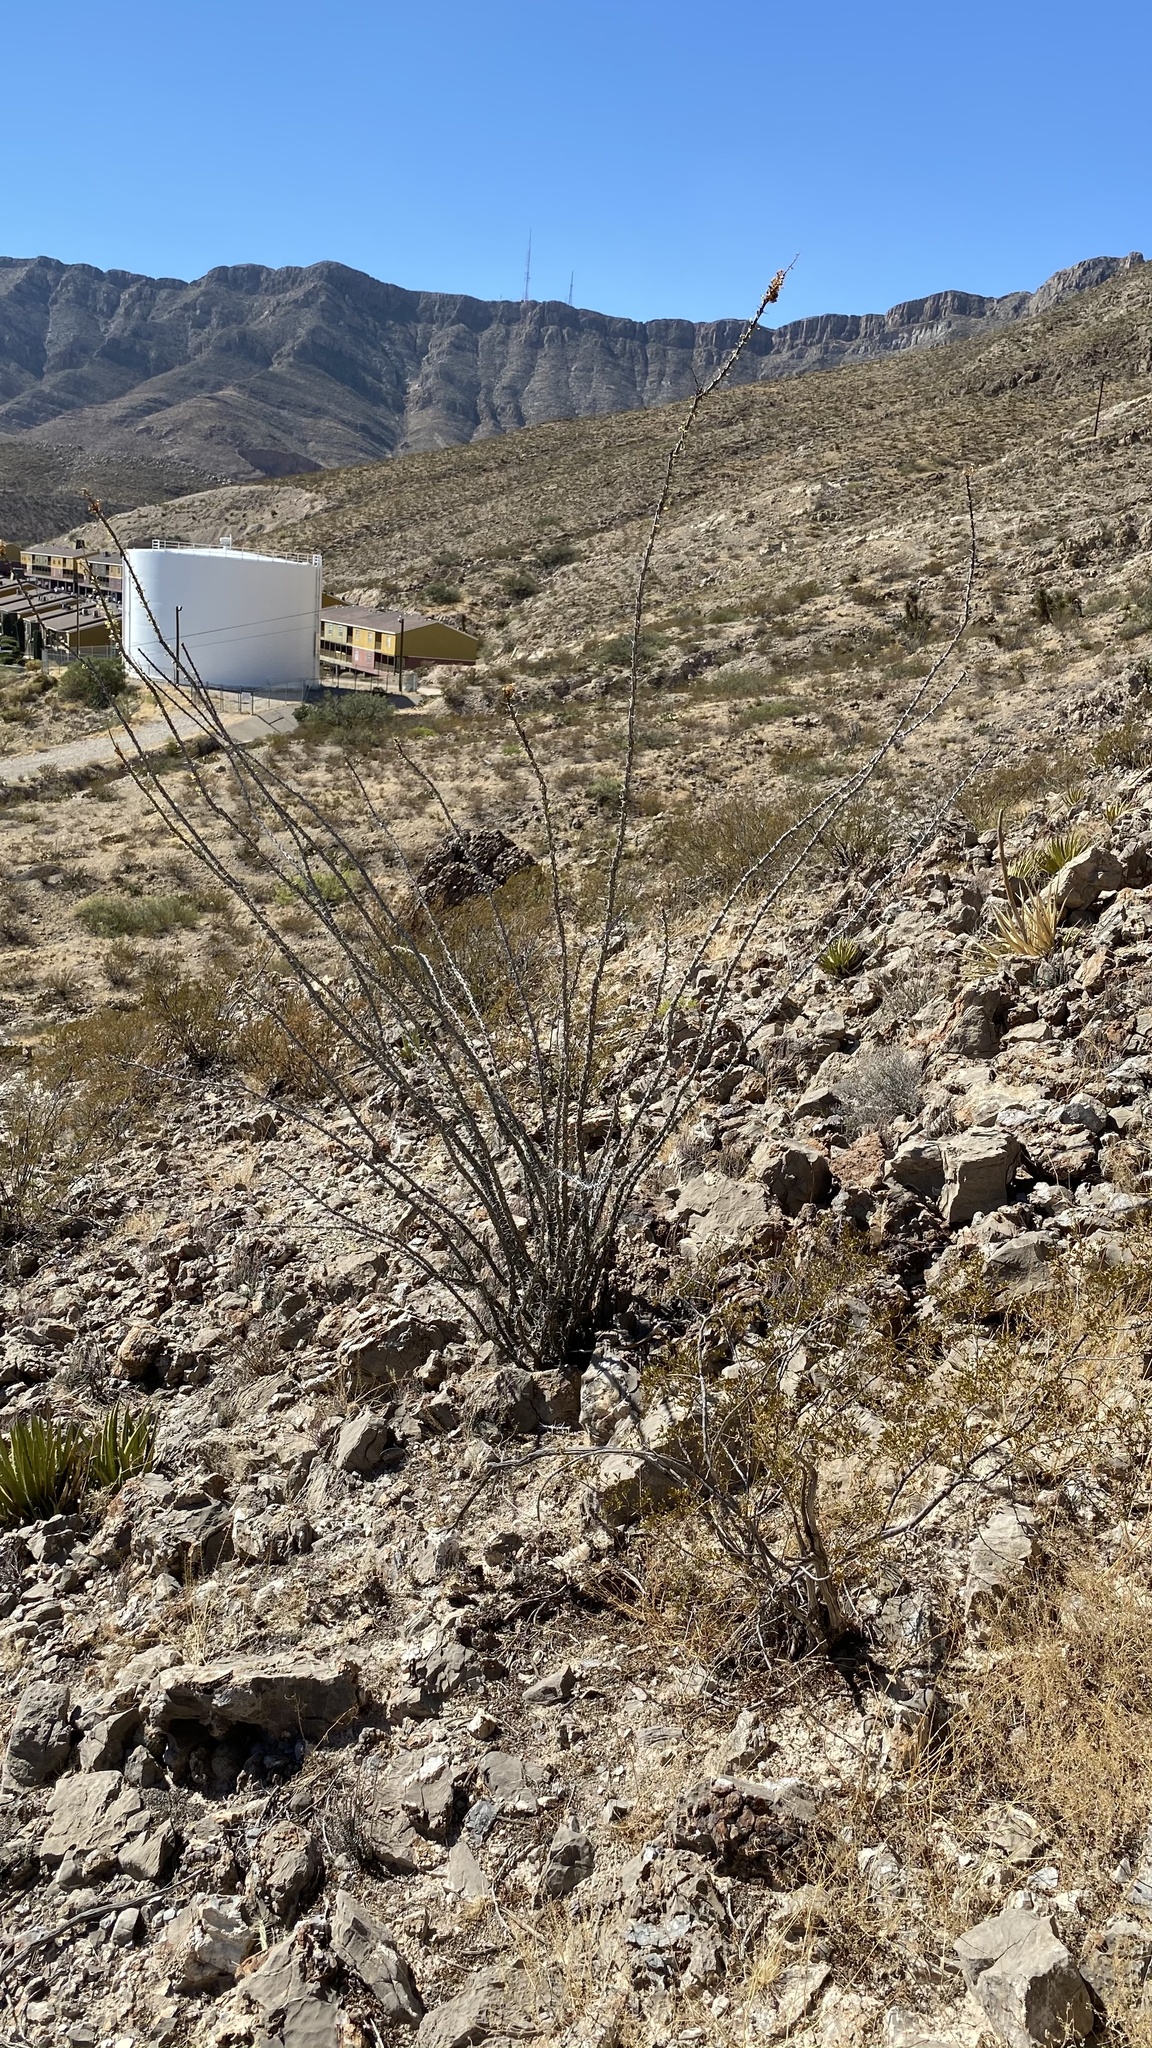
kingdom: Plantae
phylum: Tracheophyta
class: Magnoliopsida
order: Ericales
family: Fouquieriaceae
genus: Fouquieria
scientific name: Fouquieria splendens
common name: Vine-cactus
